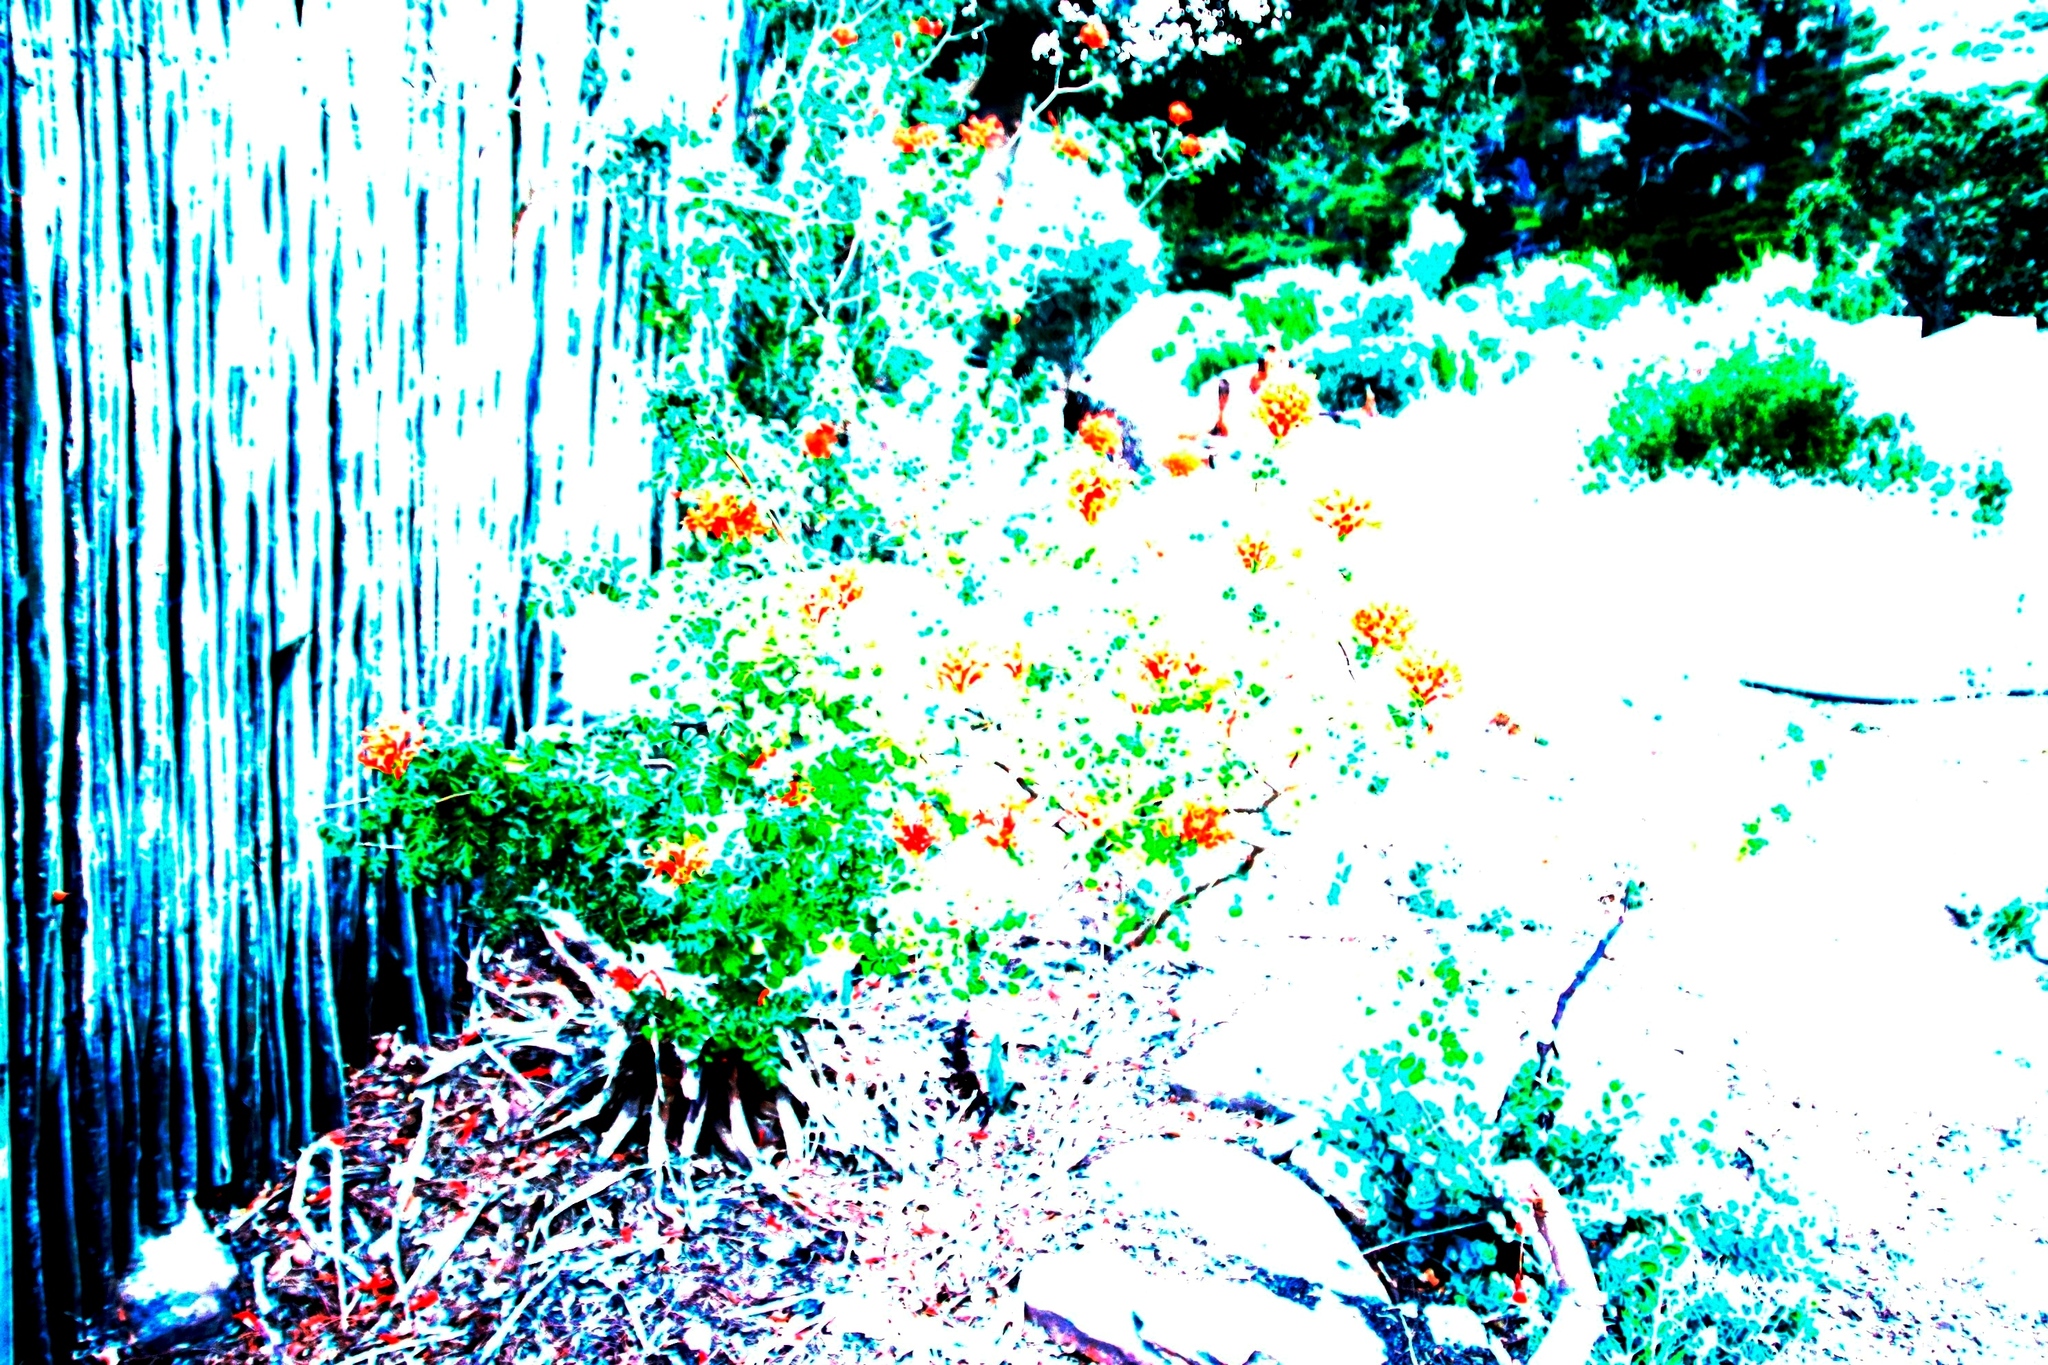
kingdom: Plantae
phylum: Tracheophyta
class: Magnoliopsida
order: Lamiales
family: Bignoniaceae
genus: Tecomaria
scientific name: Tecomaria capensis
